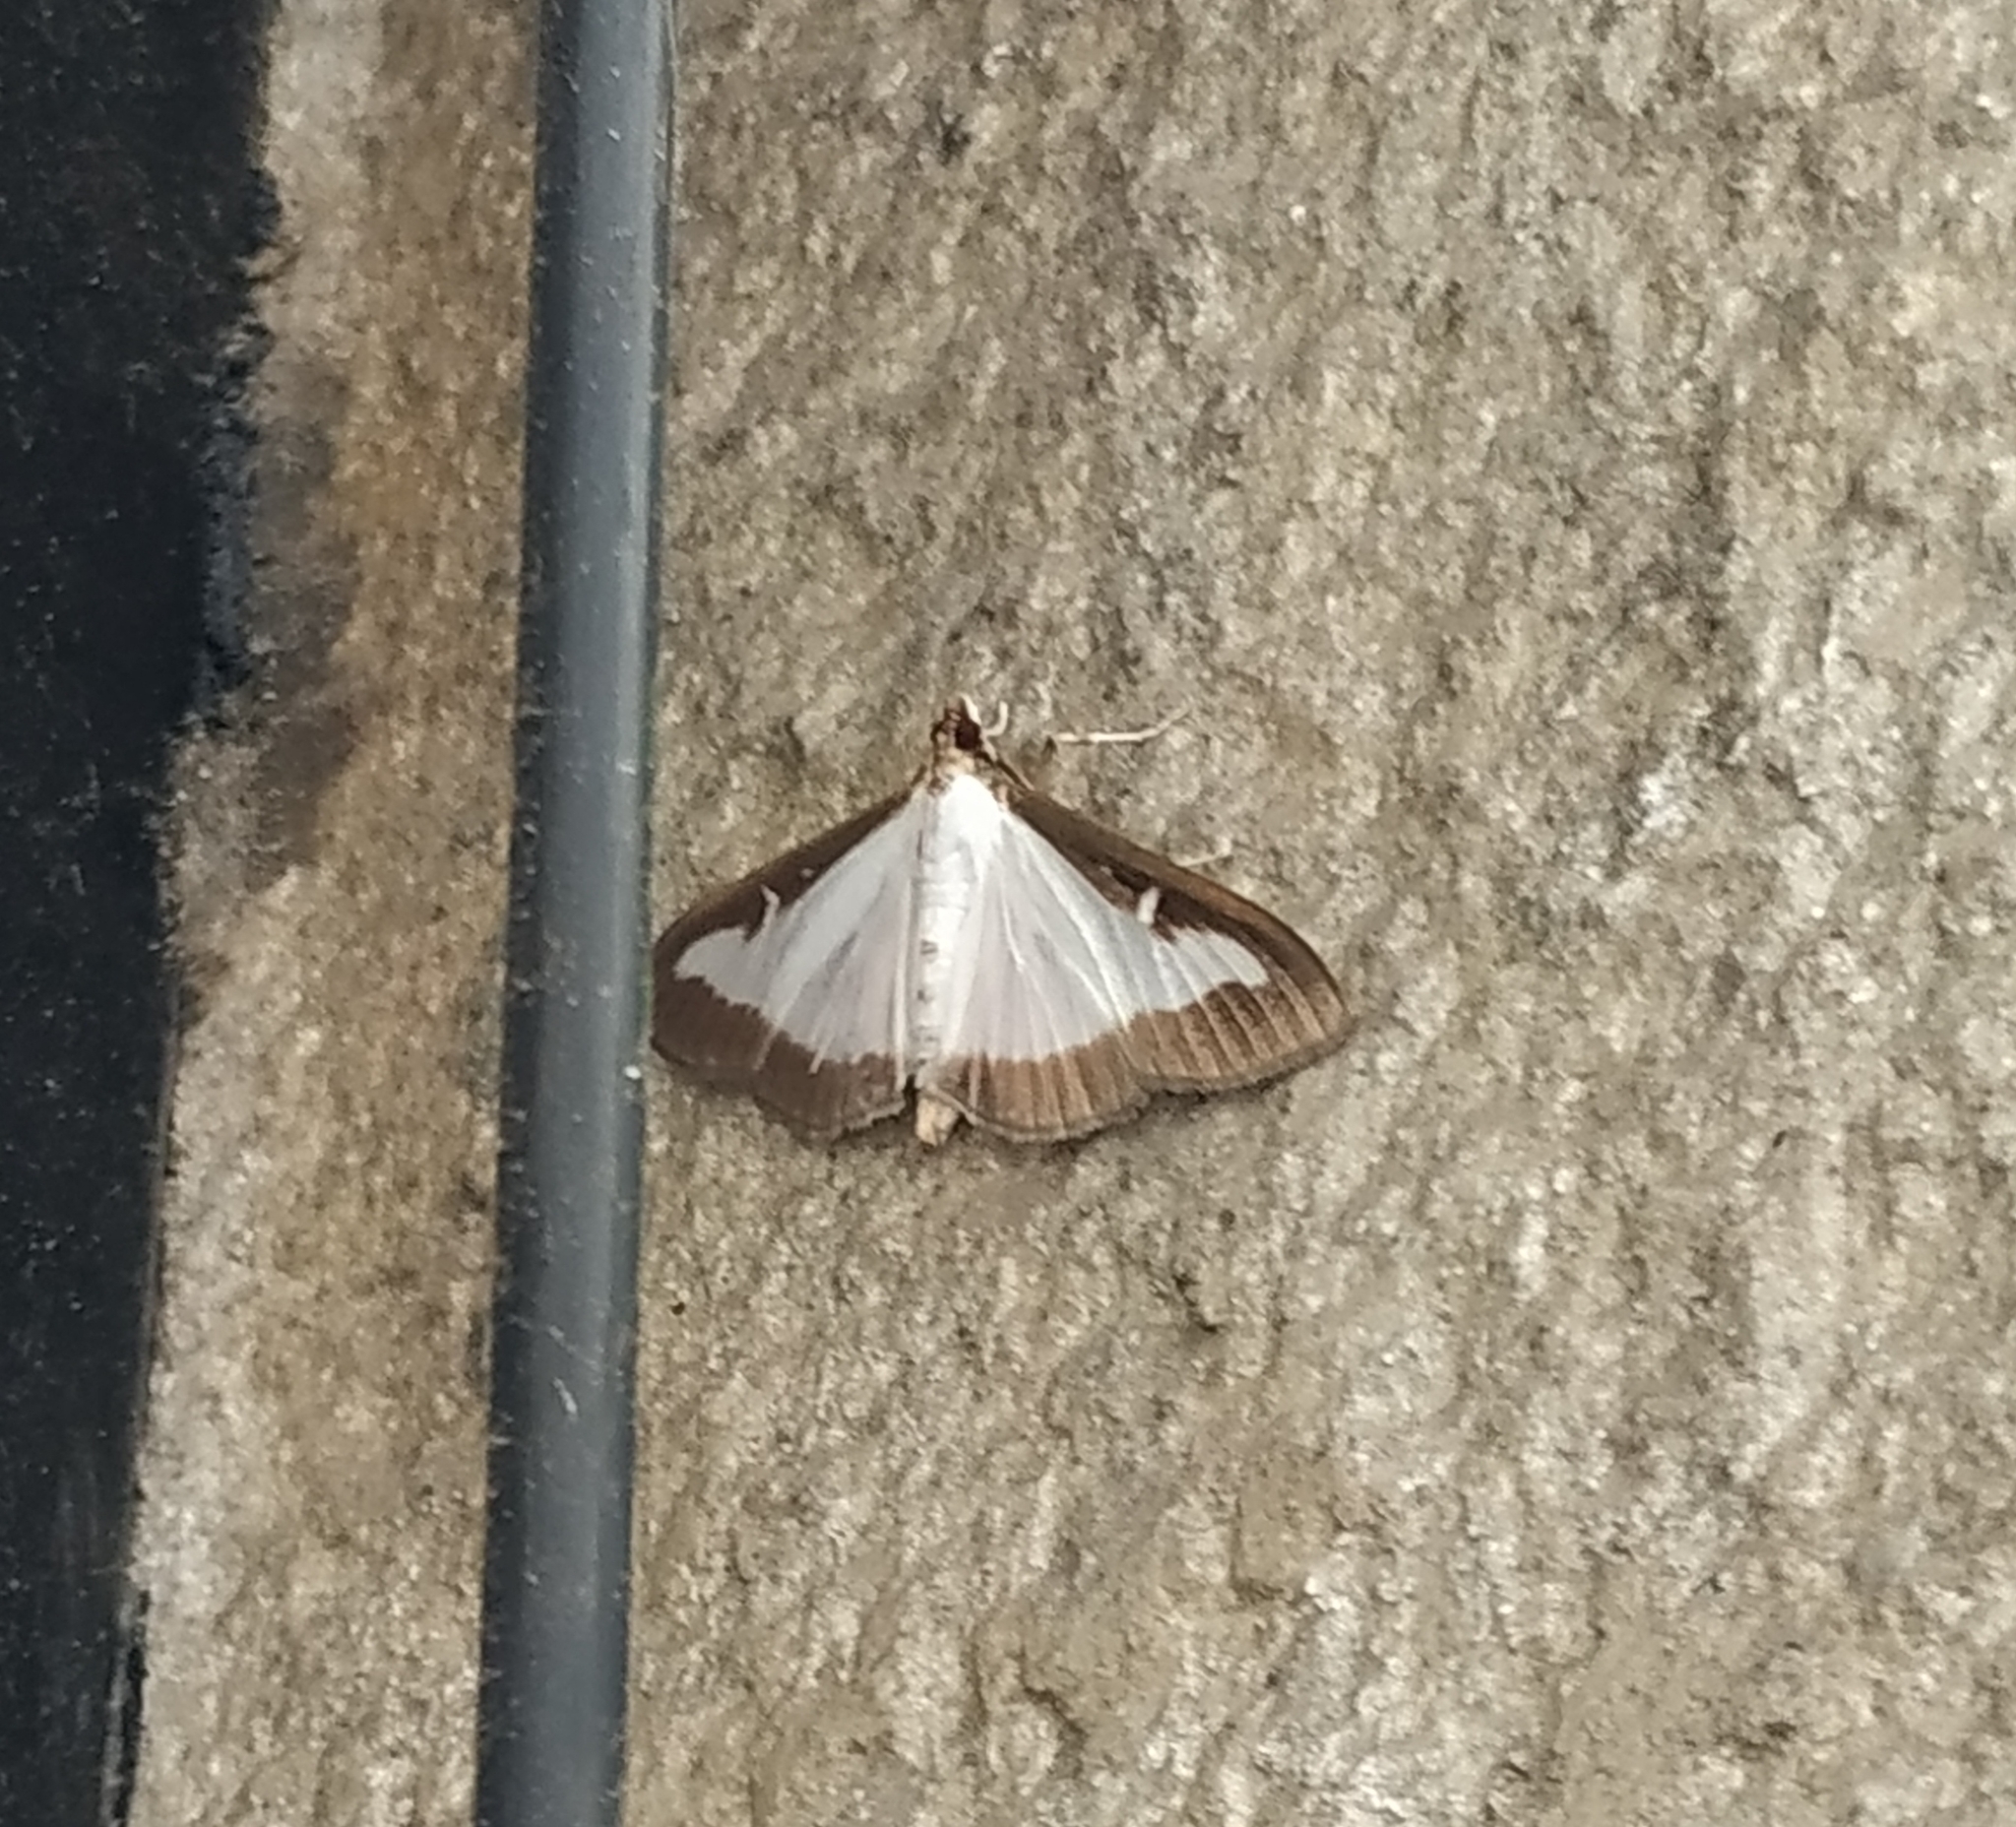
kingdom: Animalia
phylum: Arthropoda
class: Insecta
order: Lepidoptera
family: Crambidae
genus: Cydalima
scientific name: Cydalima perspectalis
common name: Box tree moth
